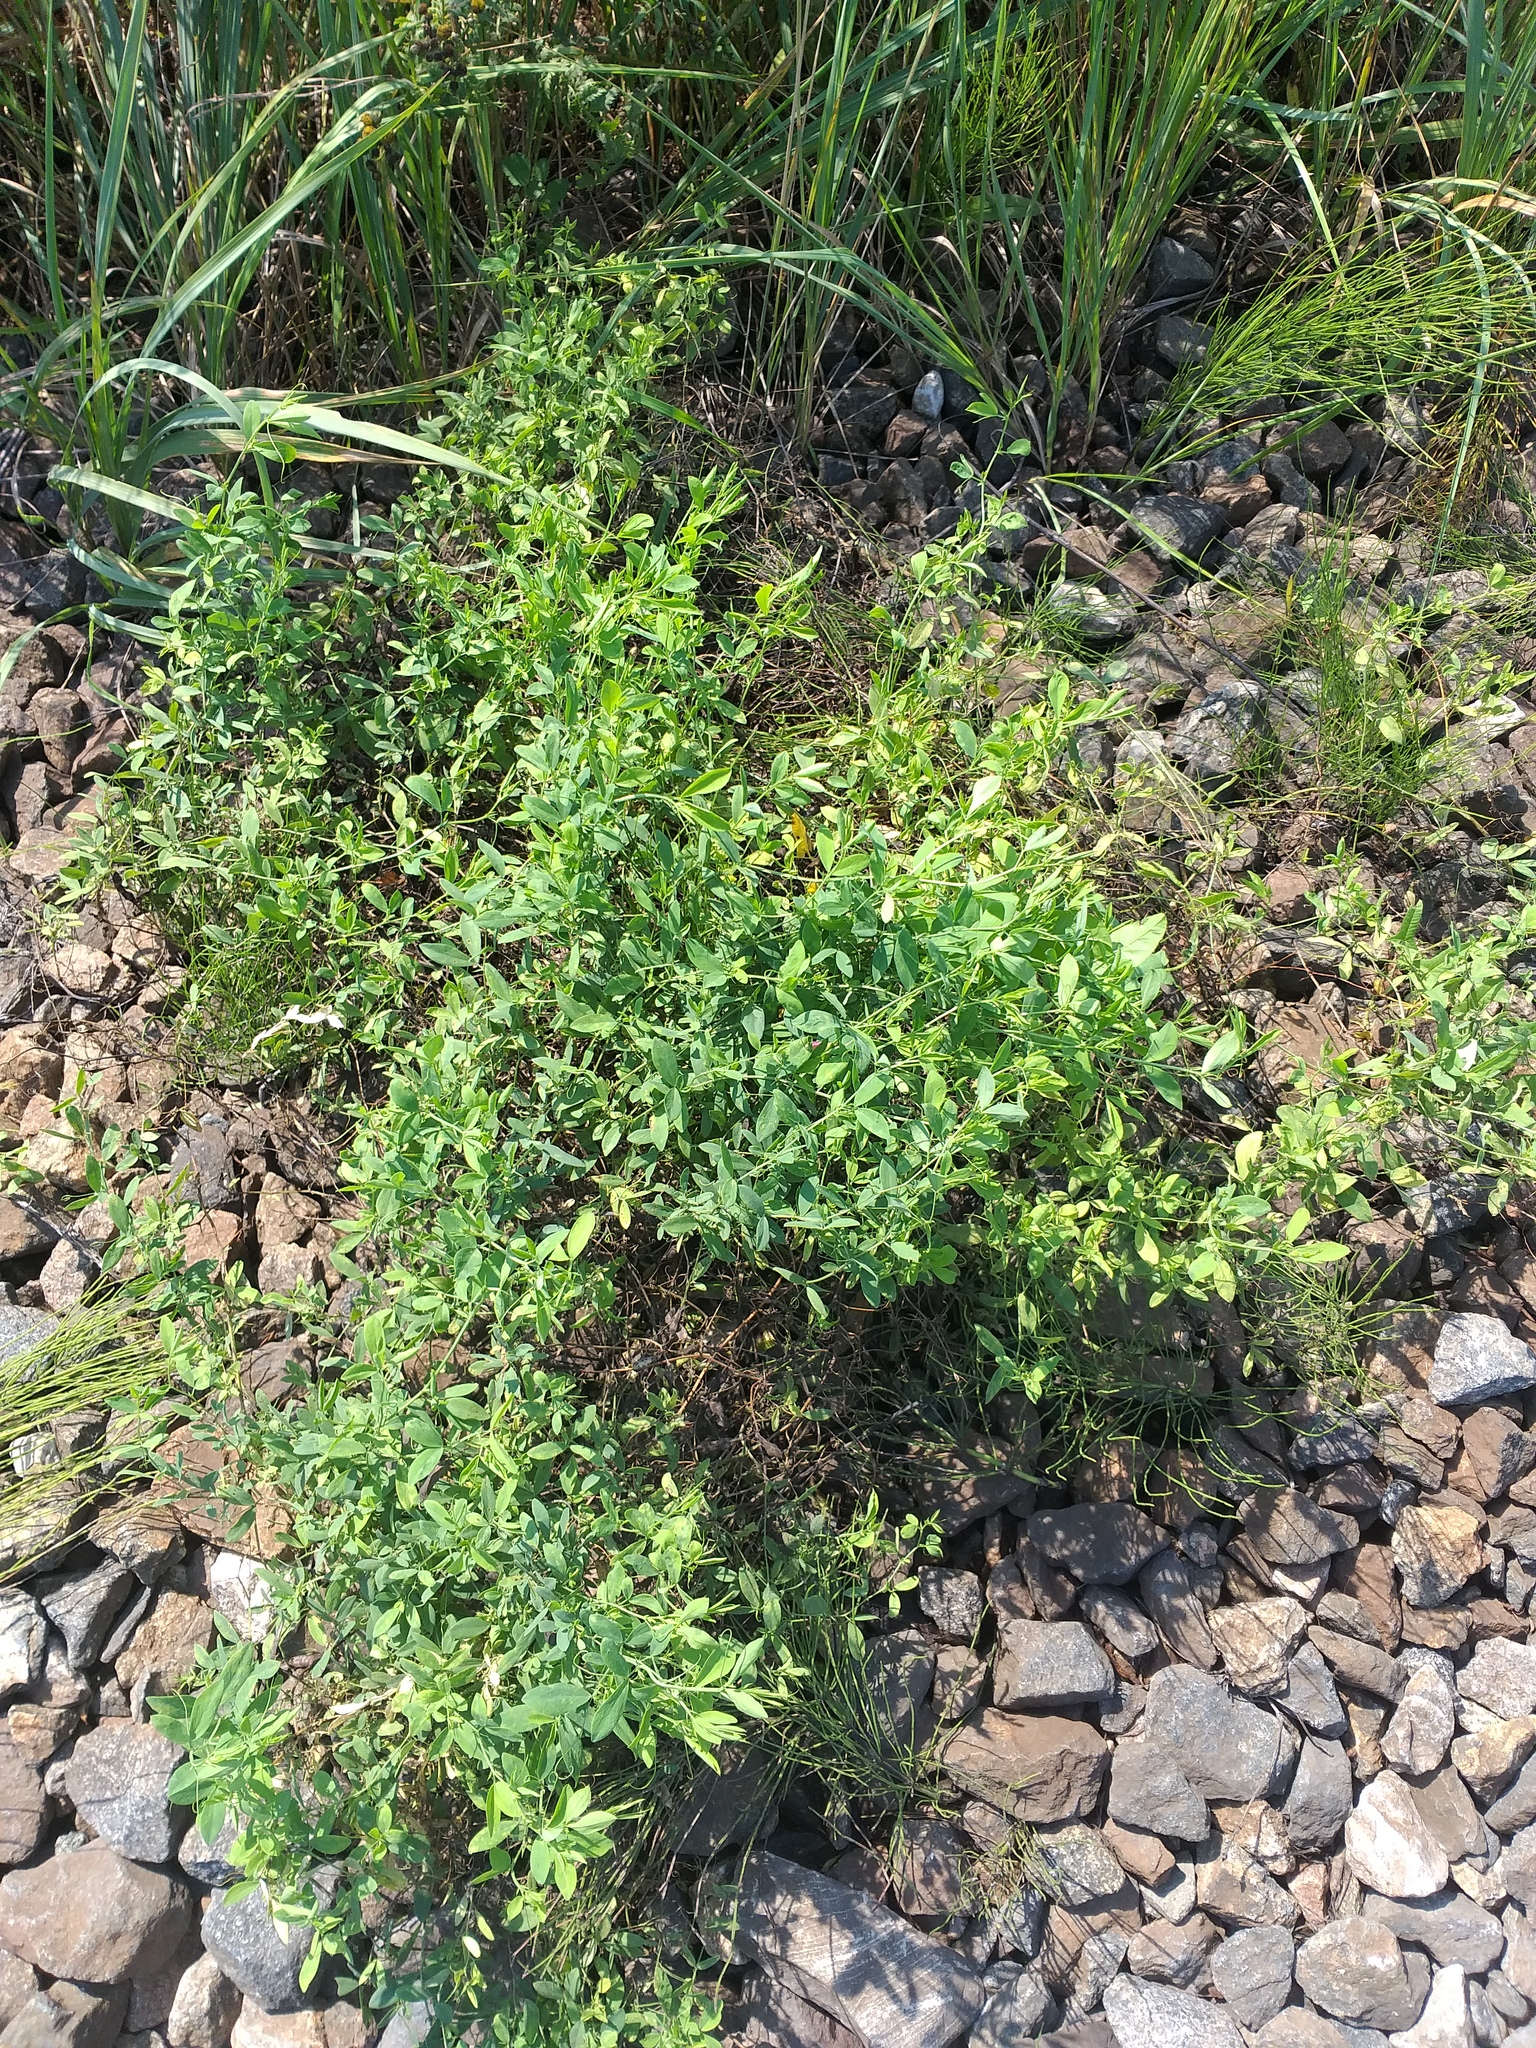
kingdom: Plantae
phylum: Tracheophyta
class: Magnoliopsida
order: Fabales
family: Fabaceae
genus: Lathyrus
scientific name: Lathyrus tuberosus
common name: Tuberous pea
